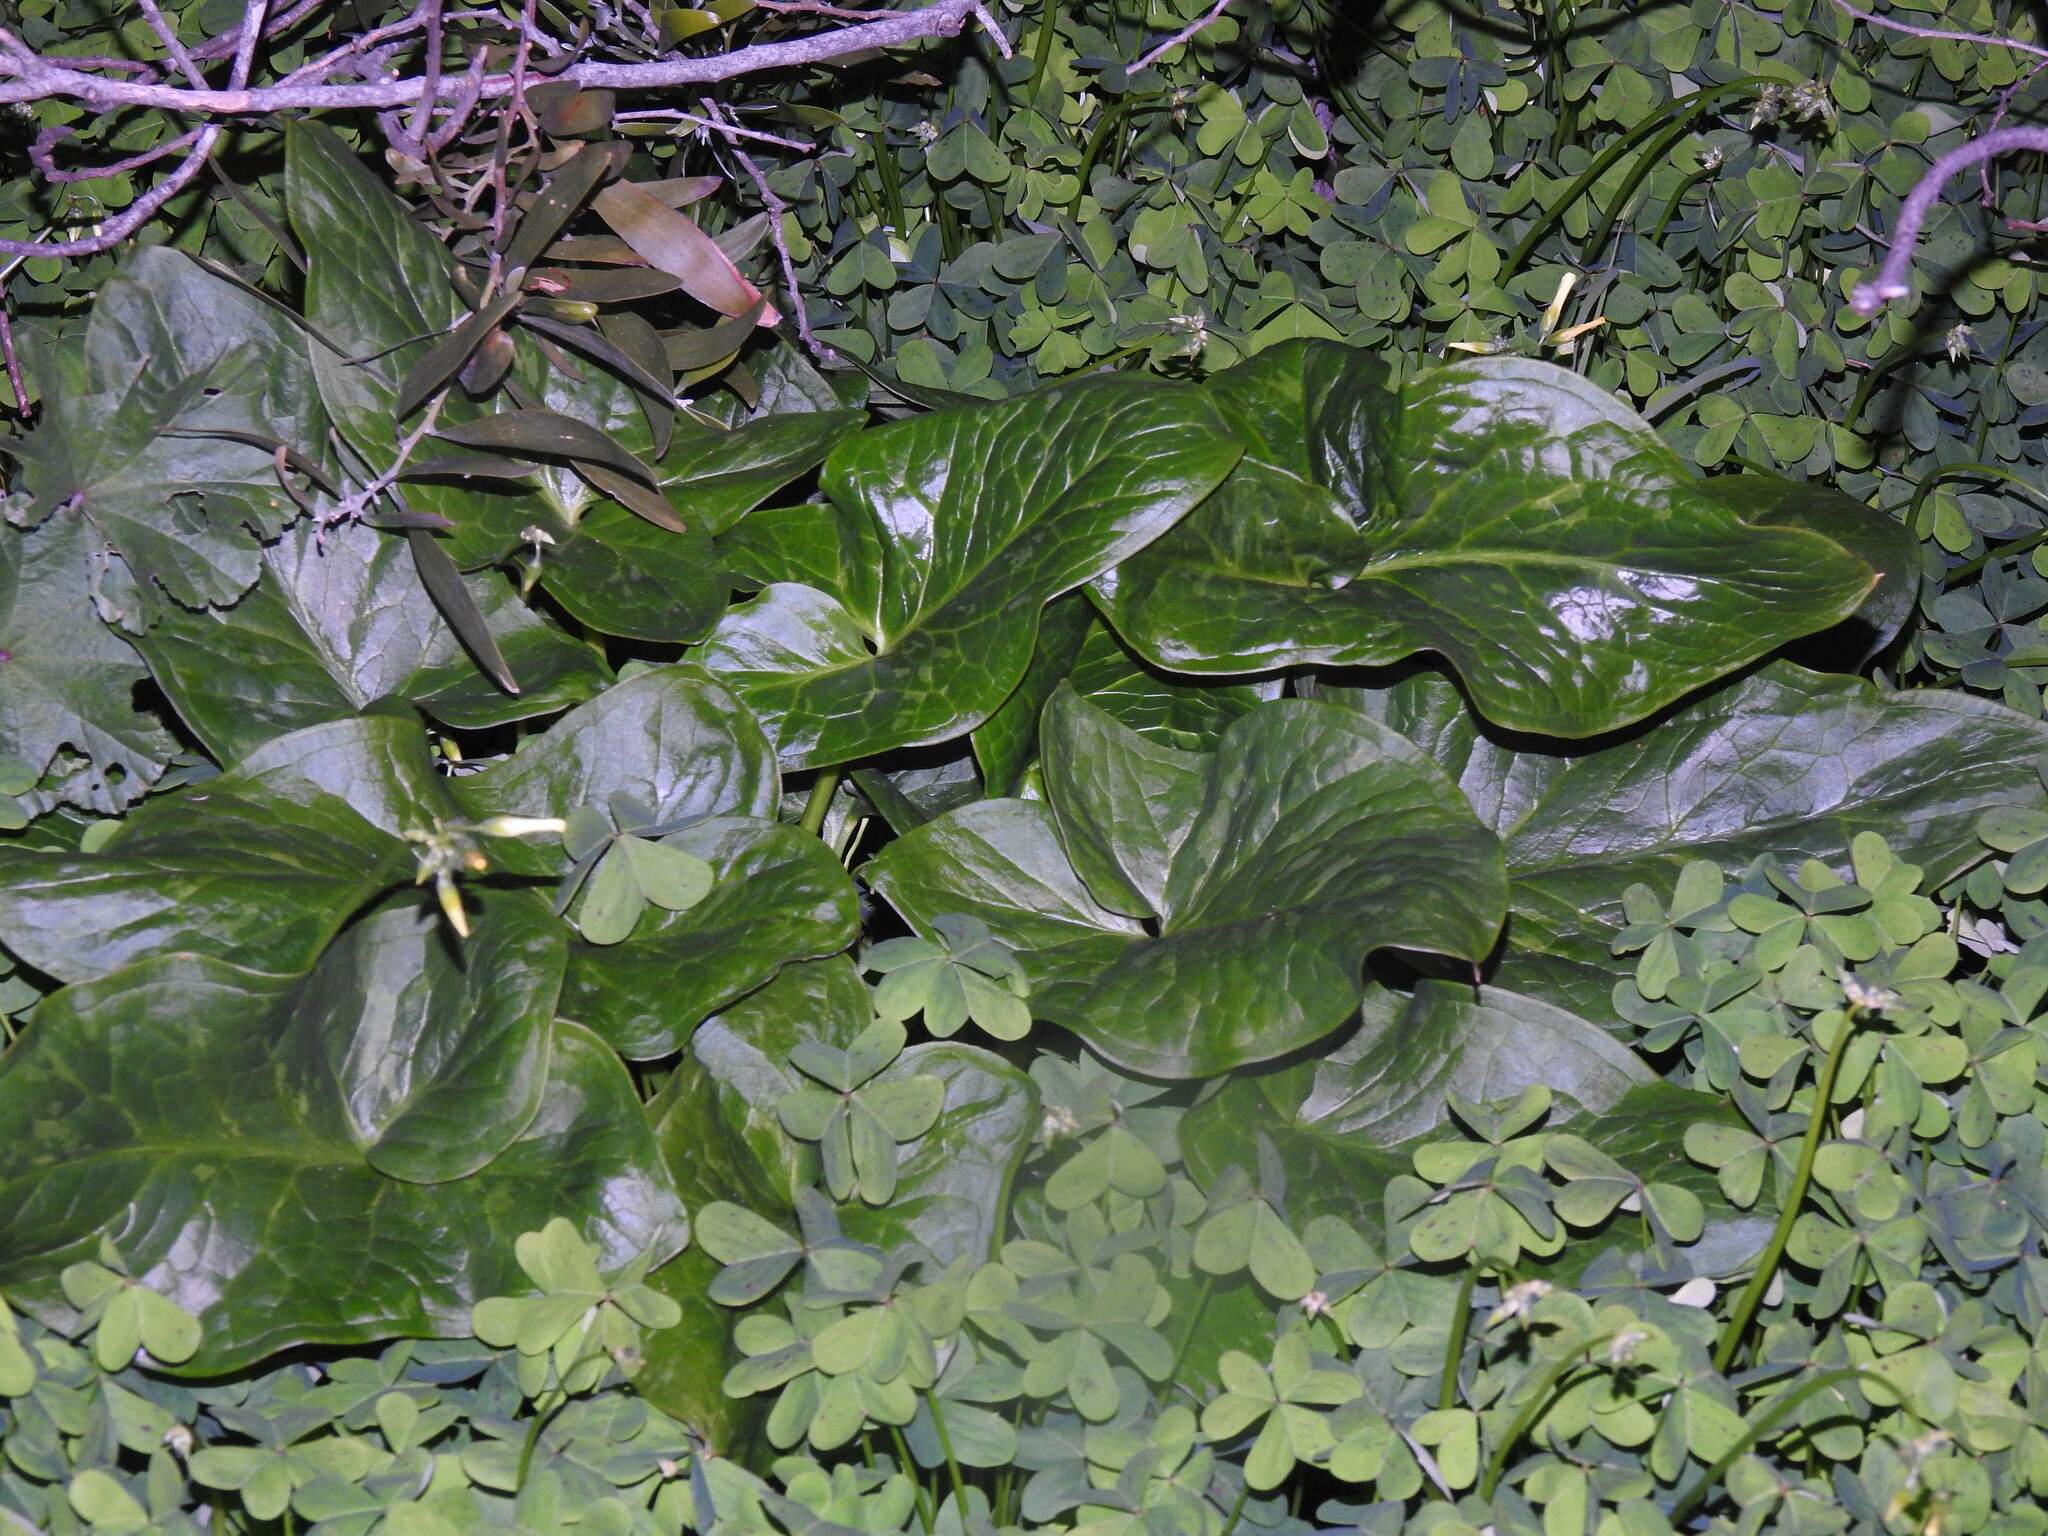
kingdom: Plantae
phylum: Tracheophyta
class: Liliopsida
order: Alismatales
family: Araceae
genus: Arum
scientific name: Arum italicum
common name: Italian lords-and-ladies
